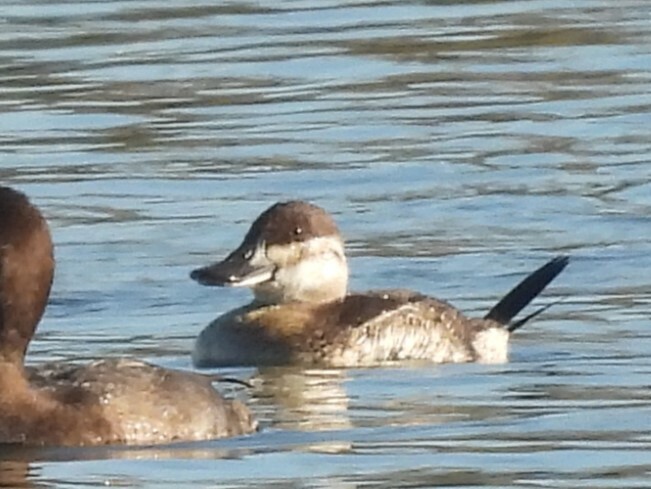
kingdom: Animalia
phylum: Chordata
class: Aves
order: Anseriformes
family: Anatidae
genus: Oxyura
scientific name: Oxyura jamaicensis
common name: Ruddy duck
